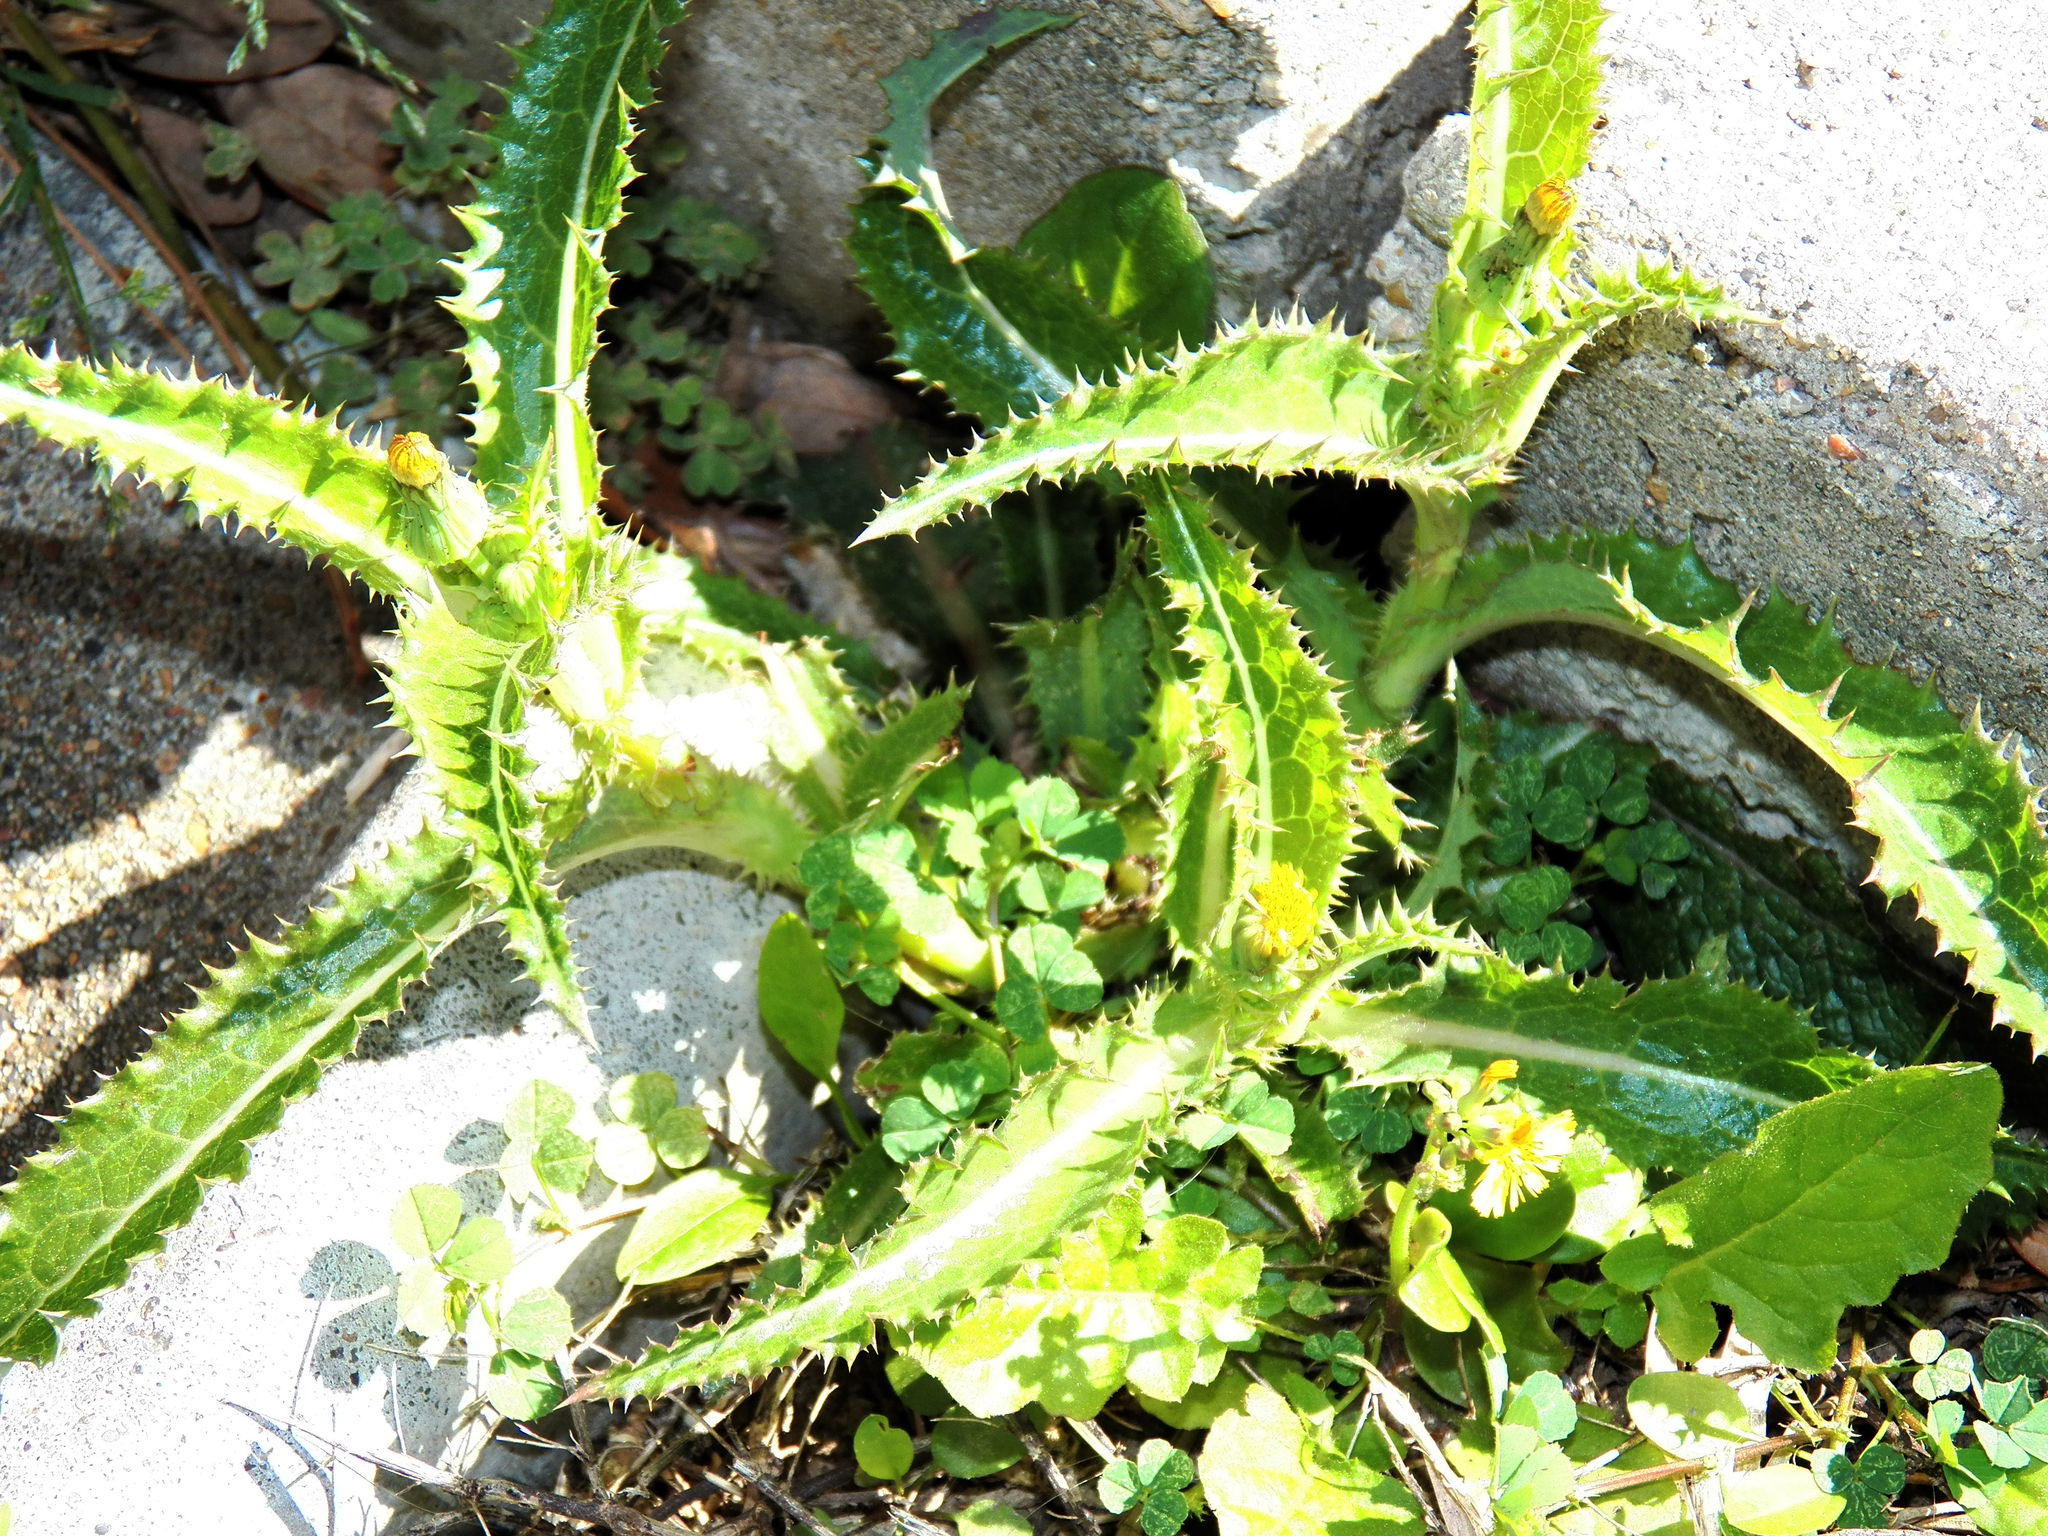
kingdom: Plantae
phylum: Tracheophyta
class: Magnoliopsida
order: Asterales
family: Asteraceae
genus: Sonchus
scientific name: Sonchus asper
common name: Prickly sow-thistle
